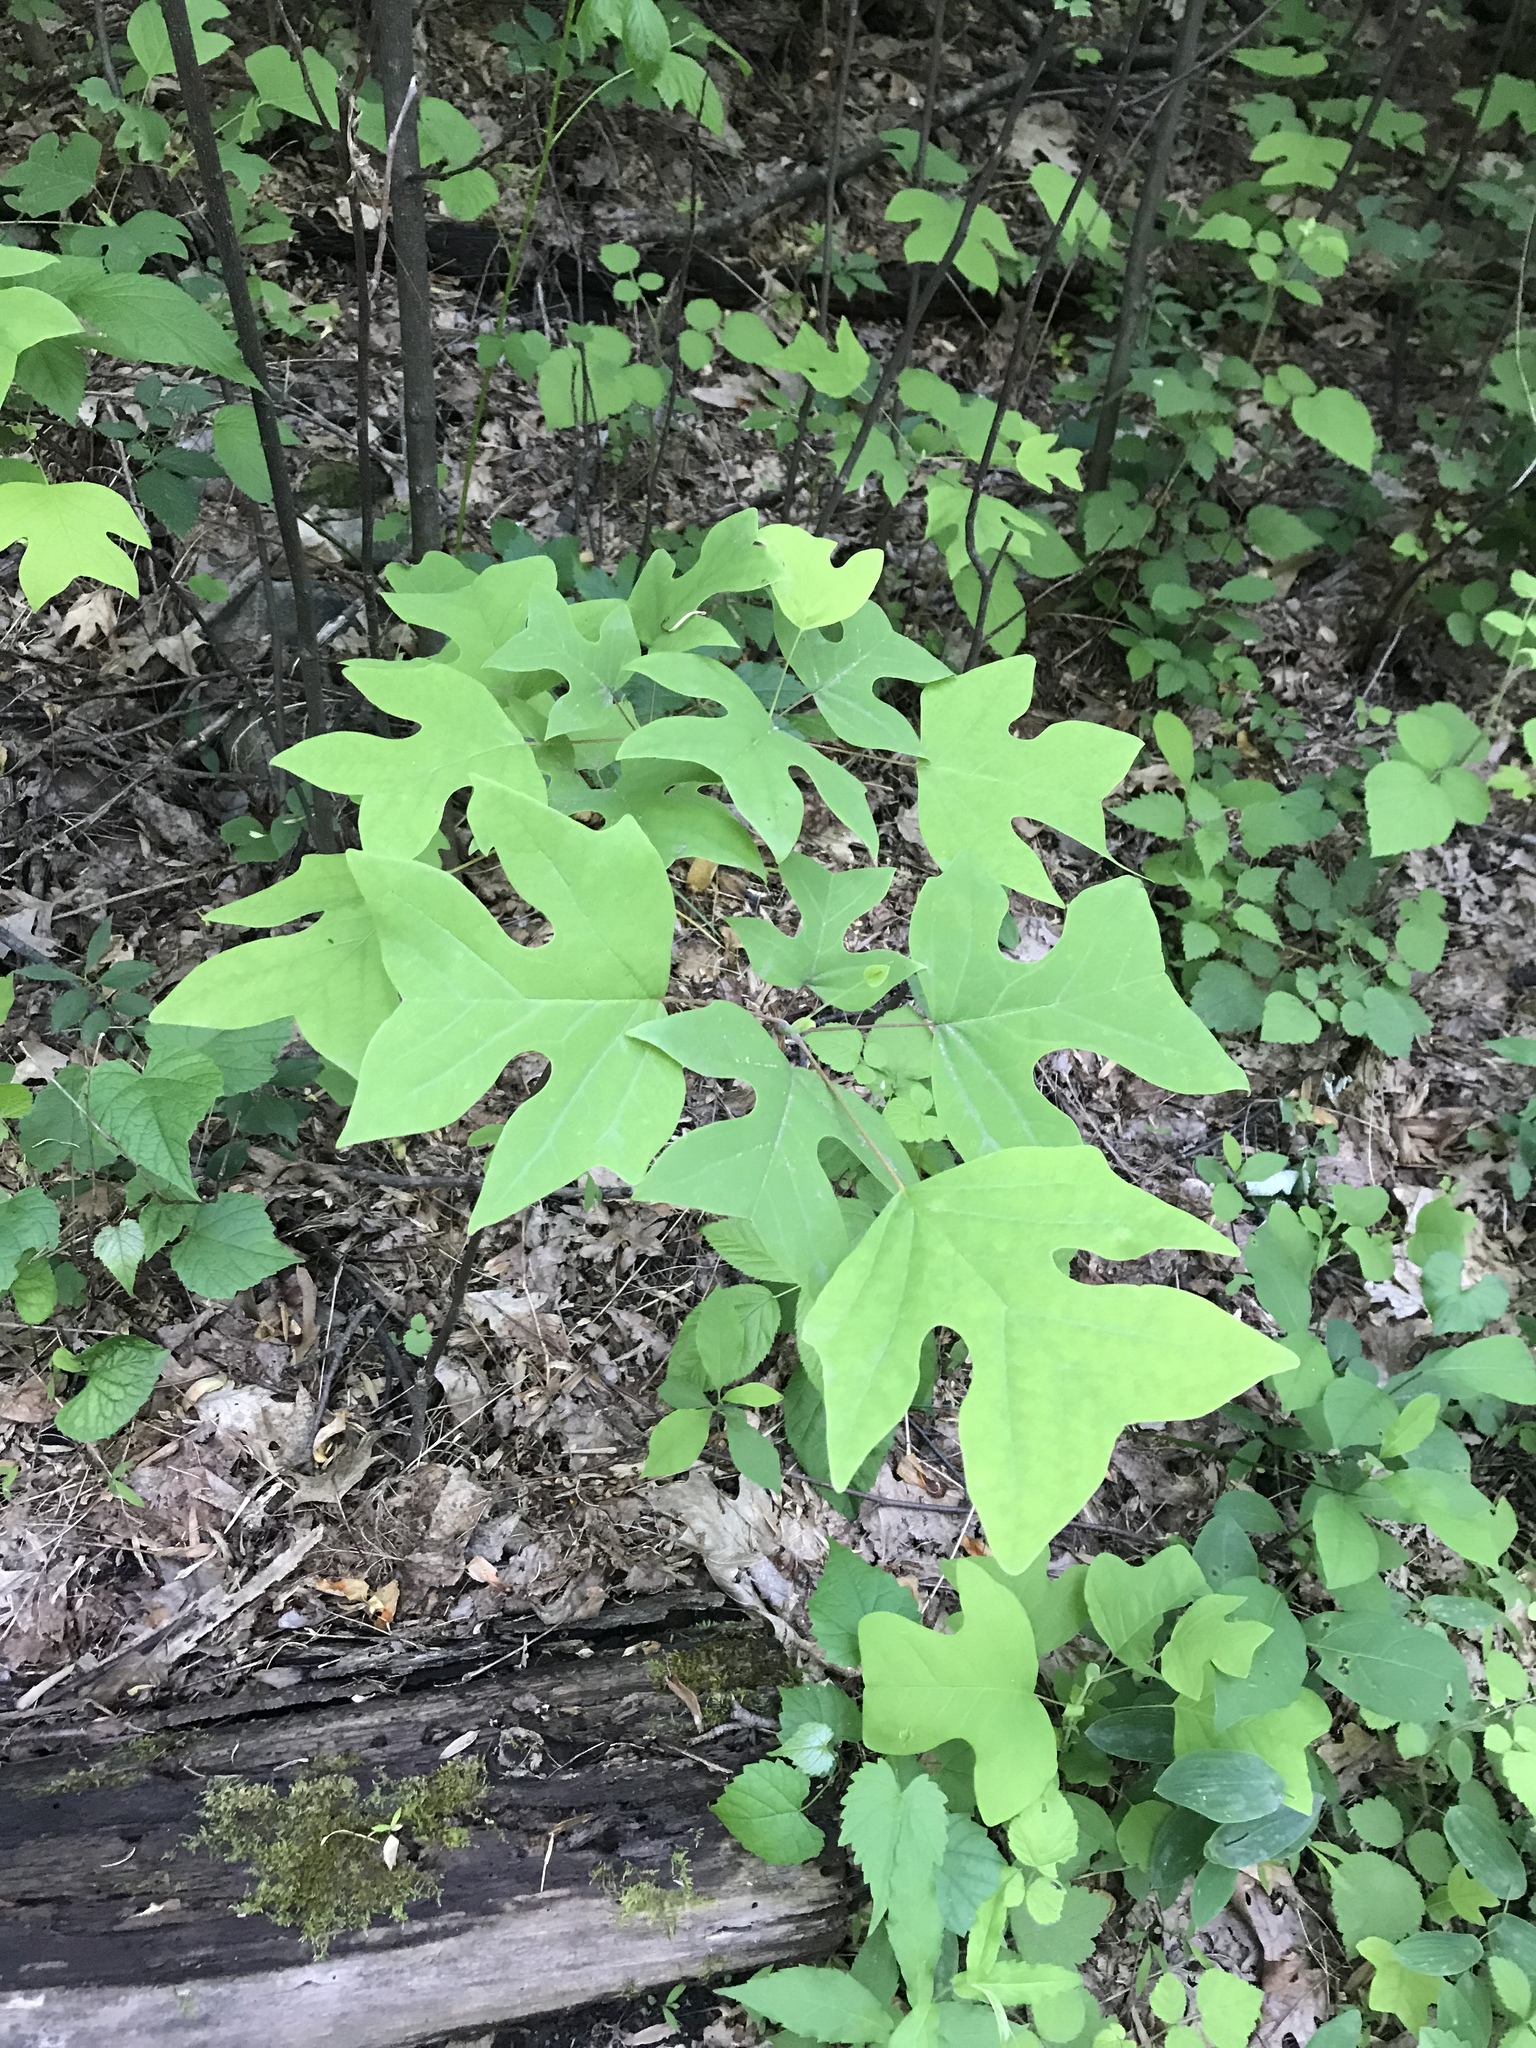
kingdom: Plantae
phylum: Tracheophyta
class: Magnoliopsida
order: Magnoliales
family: Magnoliaceae
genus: Liriodendron
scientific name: Liriodendron tulipifera
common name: Tulip tree
